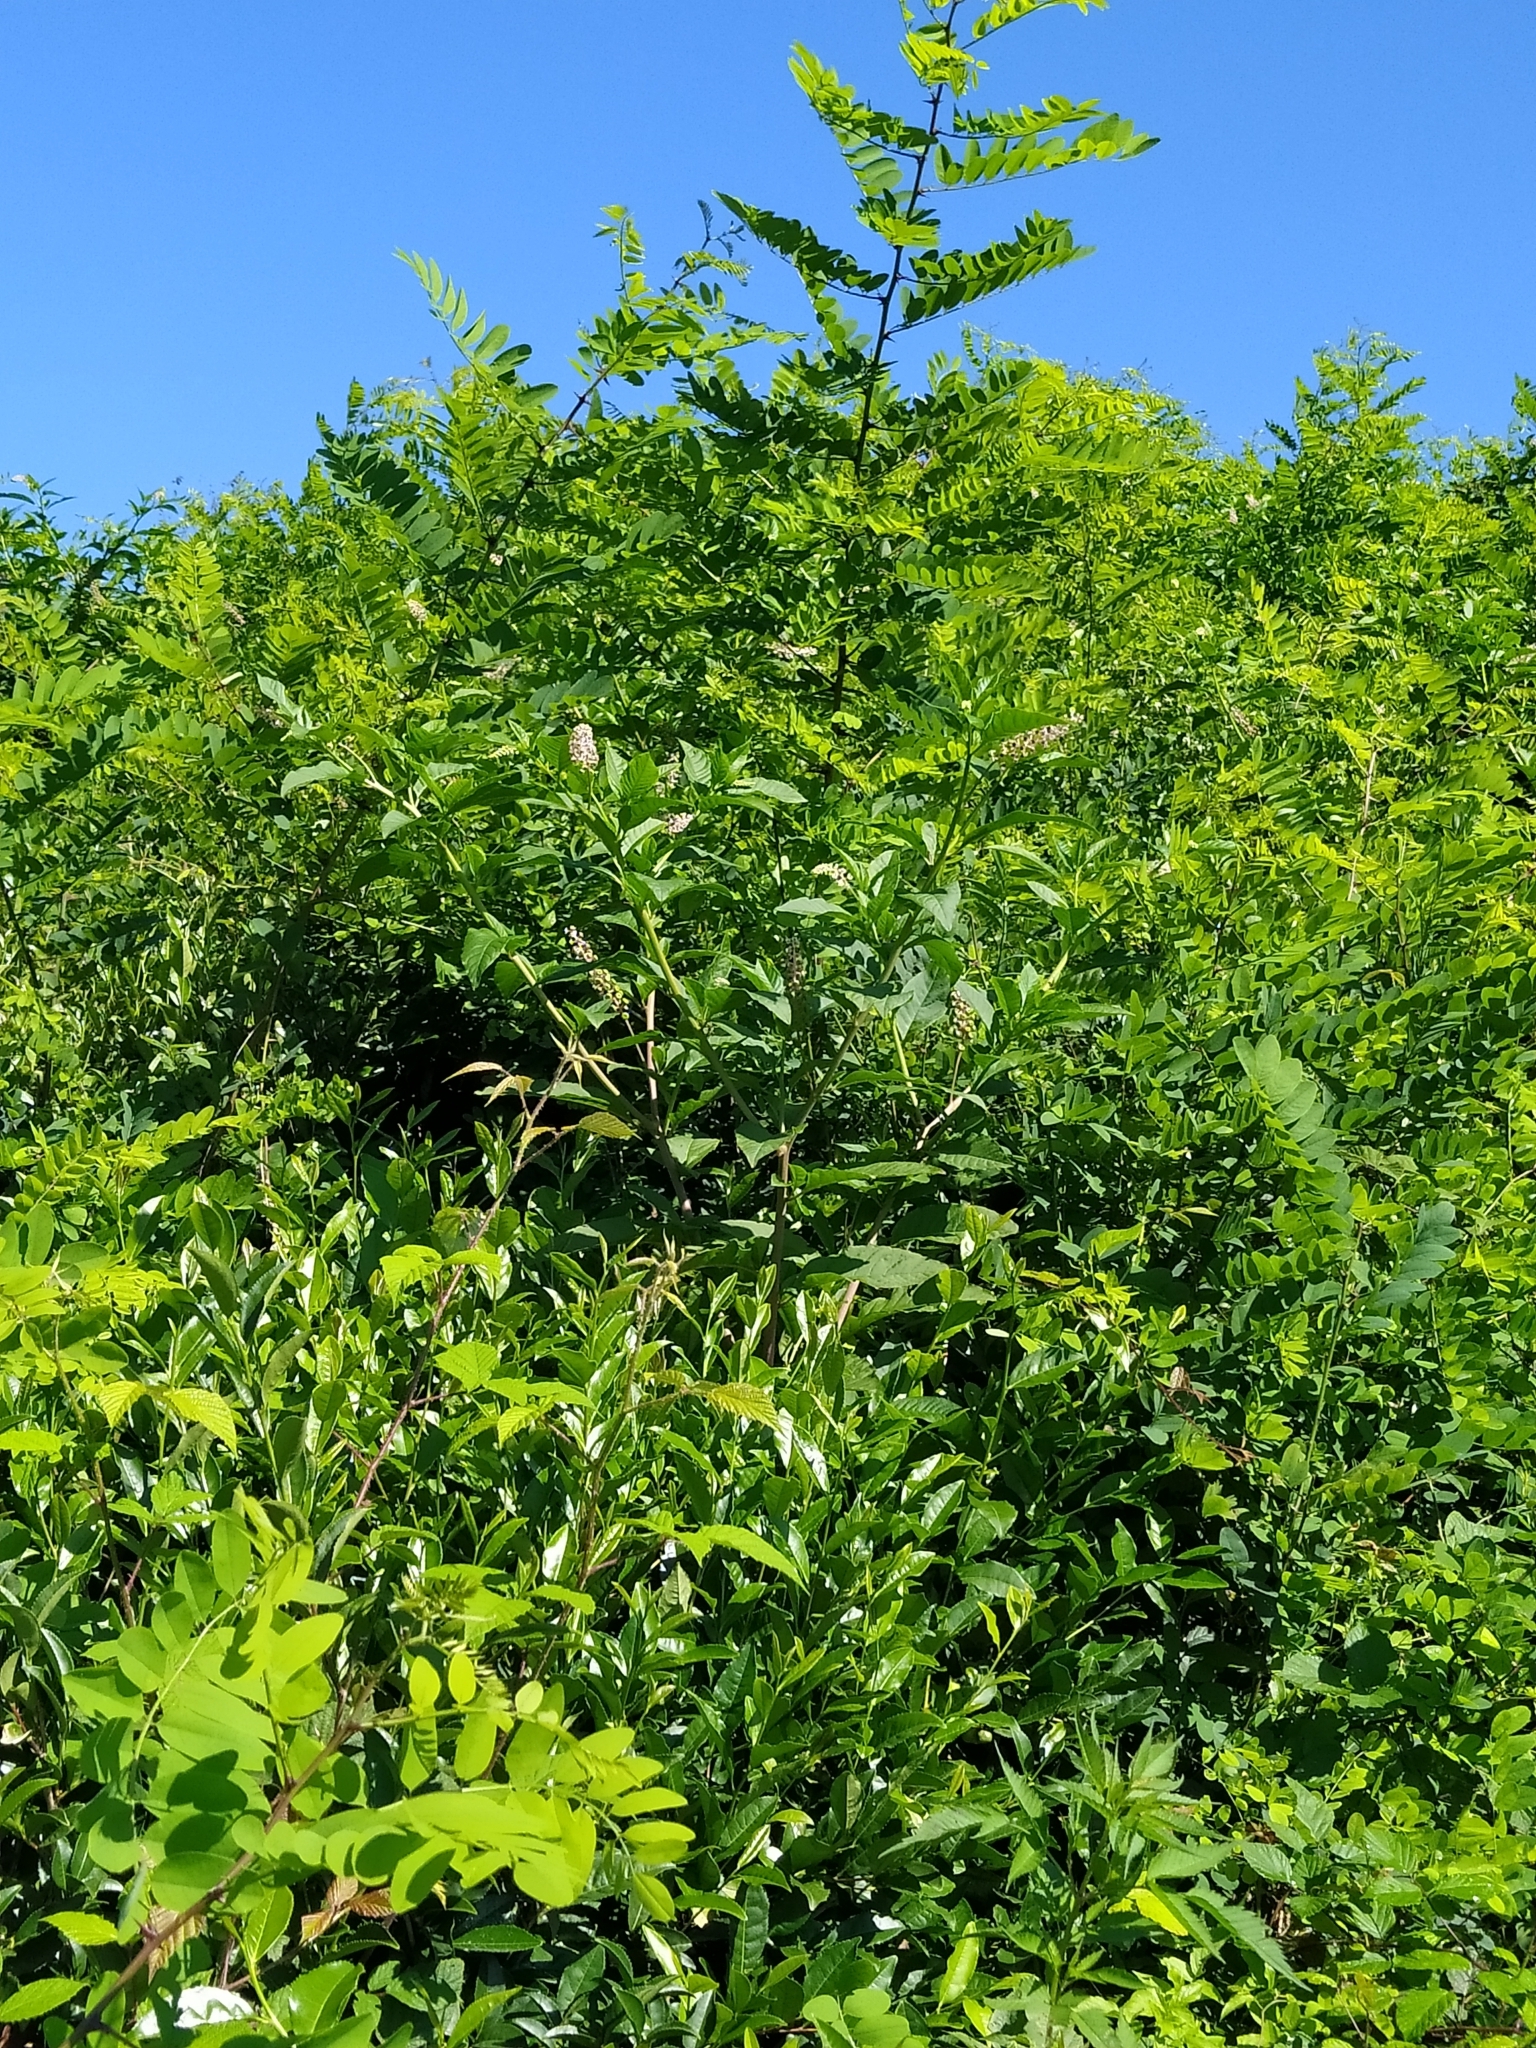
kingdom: Plantae
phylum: Tracheophyta
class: Magnoliopsida
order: Caryophyllales
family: Phytolaccaceae
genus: Phytolacca
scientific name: Phytolacca americana
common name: American pokeweed
